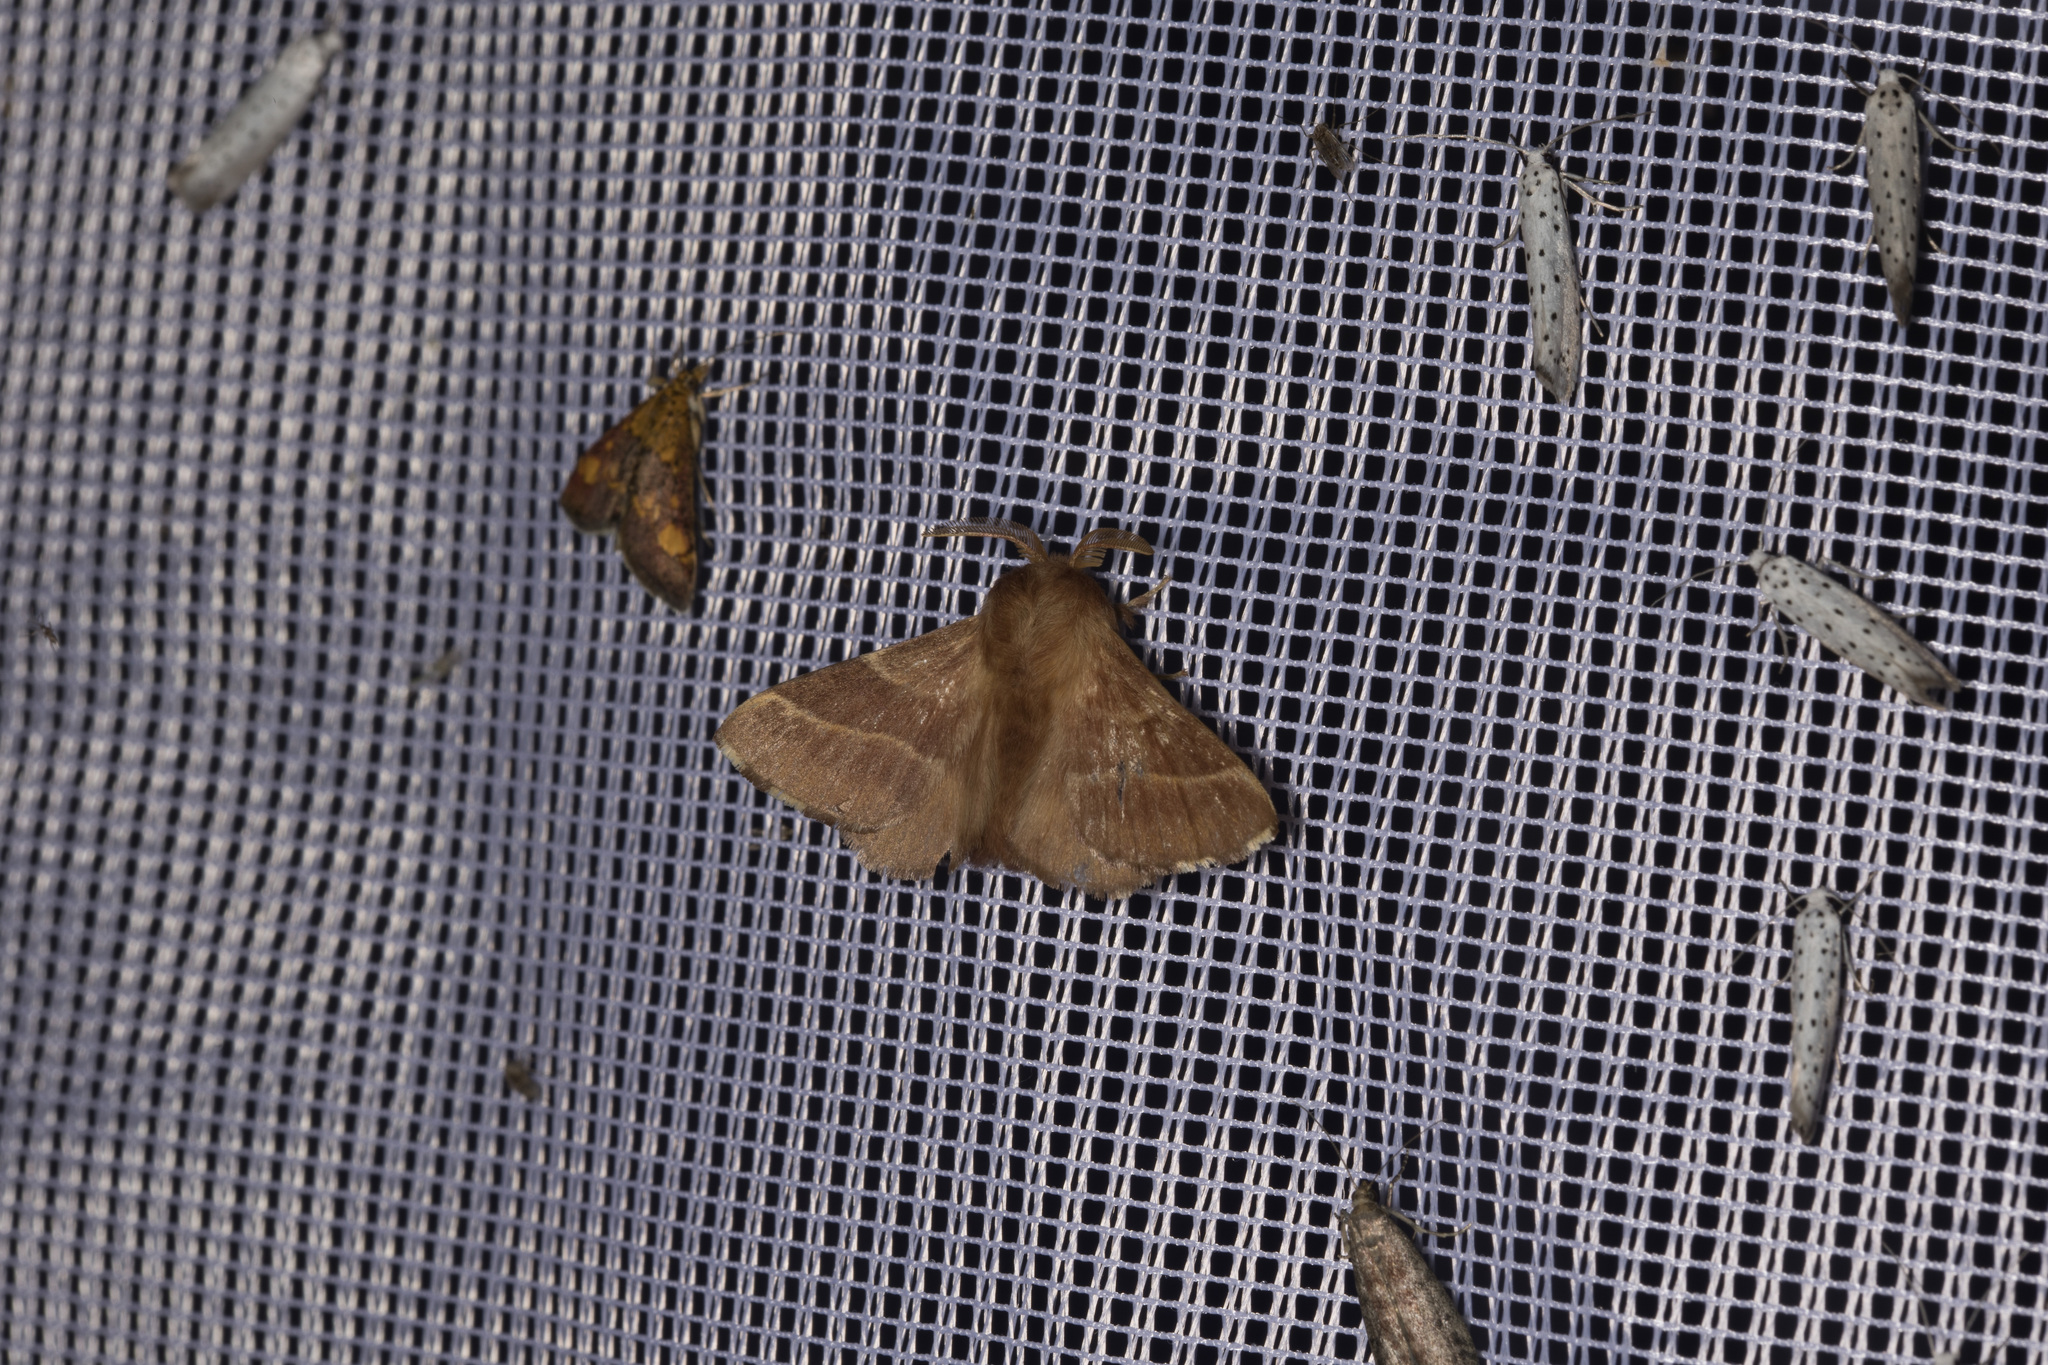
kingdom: Animalia
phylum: Arthropoda
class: Insecta
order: Lepidoptera
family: Lasiocampidae
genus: Malacosoma
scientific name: Malacosoma neustria
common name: The lackey
